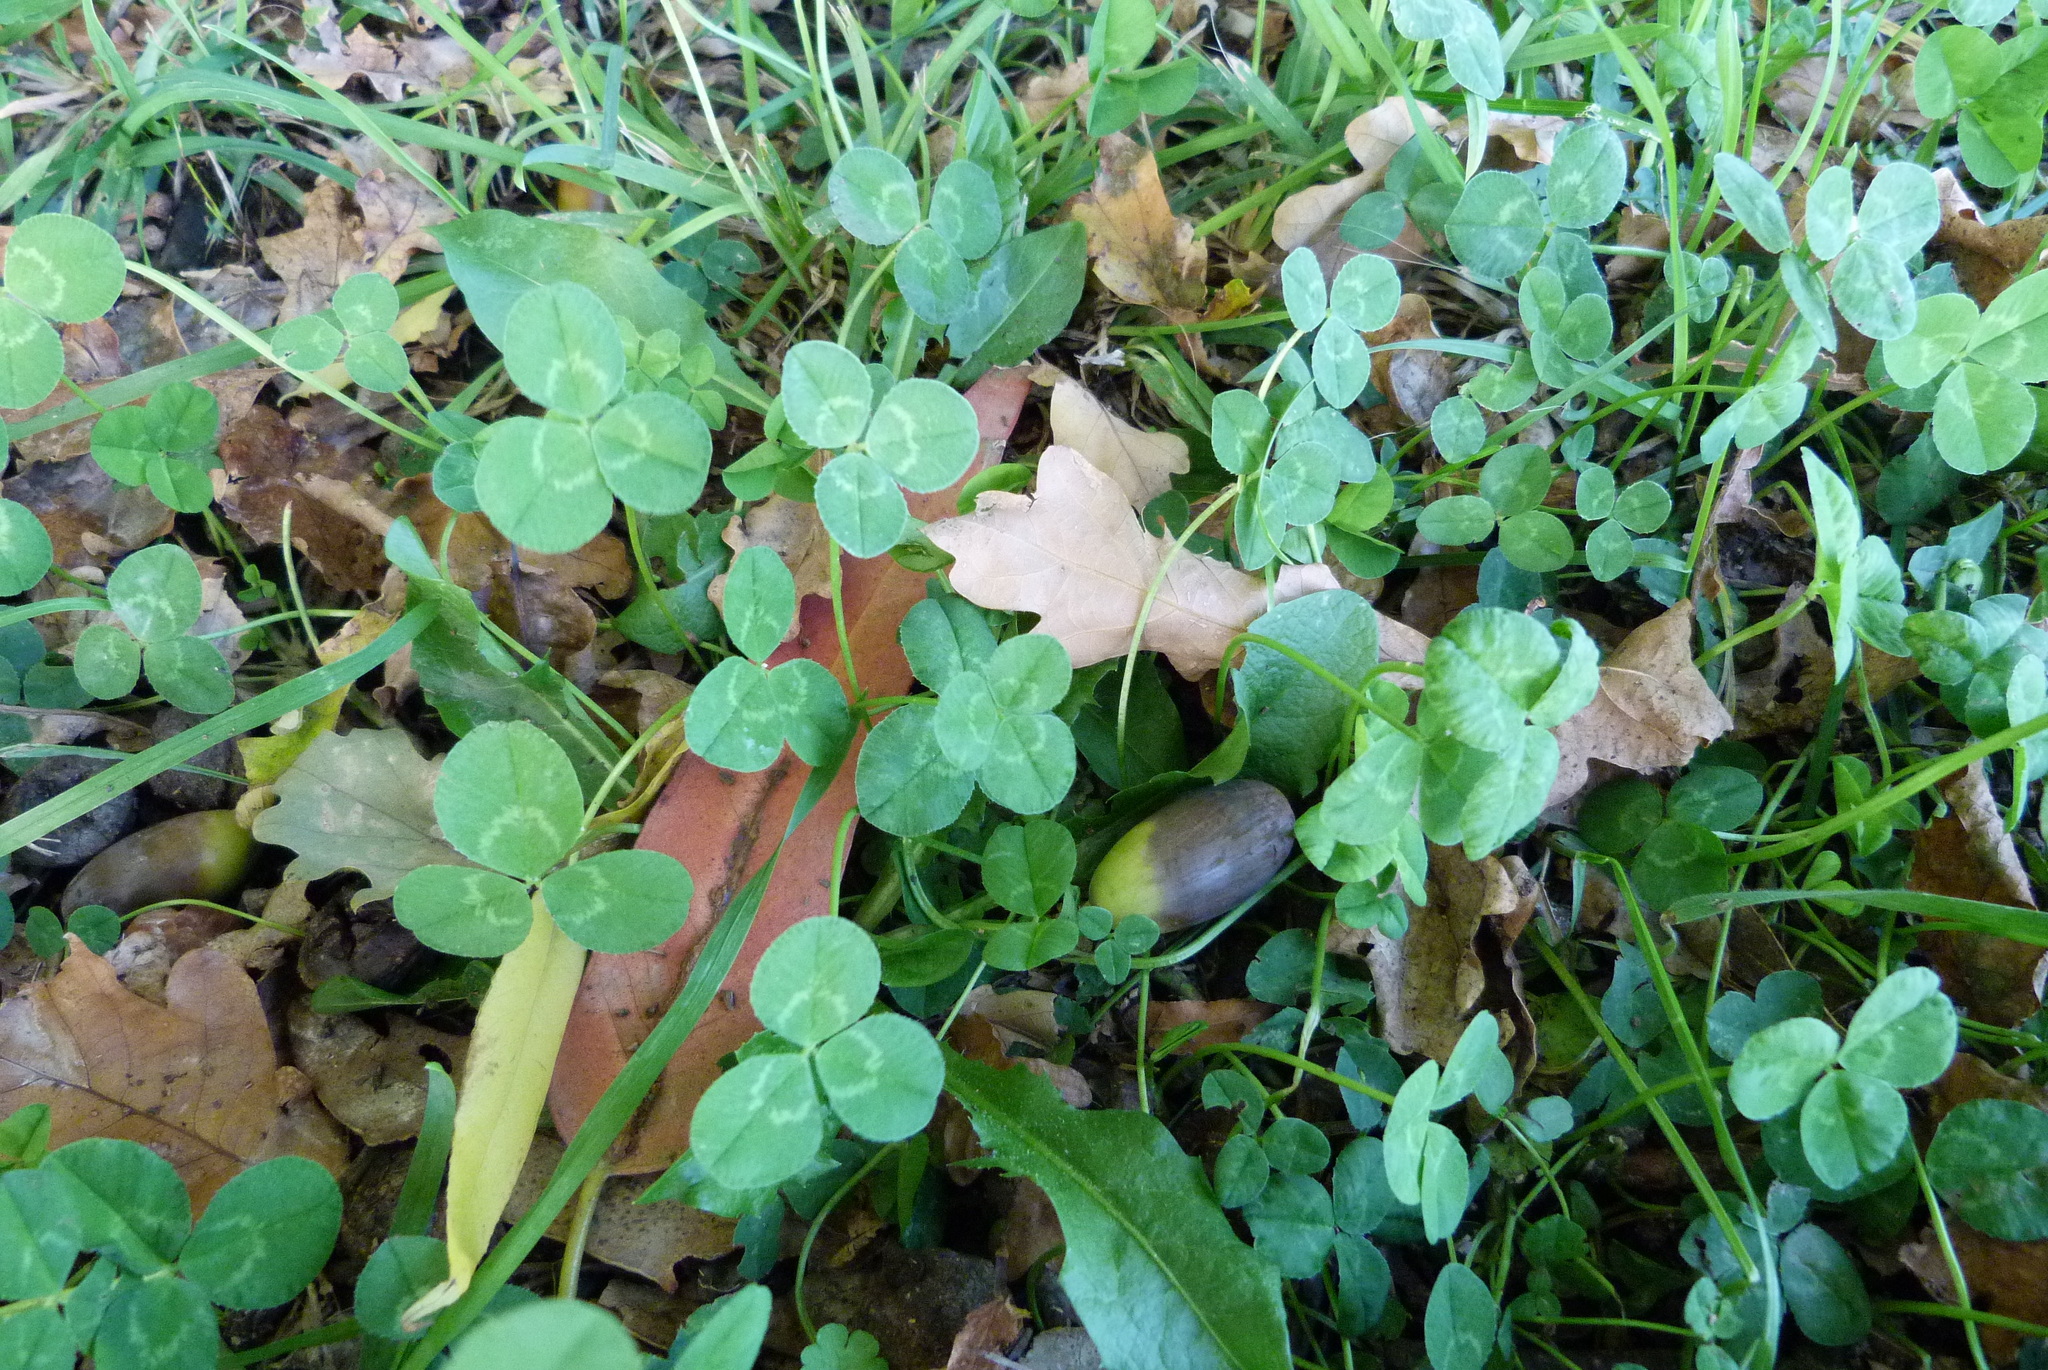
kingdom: Plantae
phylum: Tracheophyta
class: Magnoliopsida
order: Fabales
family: Fabaceae
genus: Trifolium
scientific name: Trifolium repens
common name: White clover
